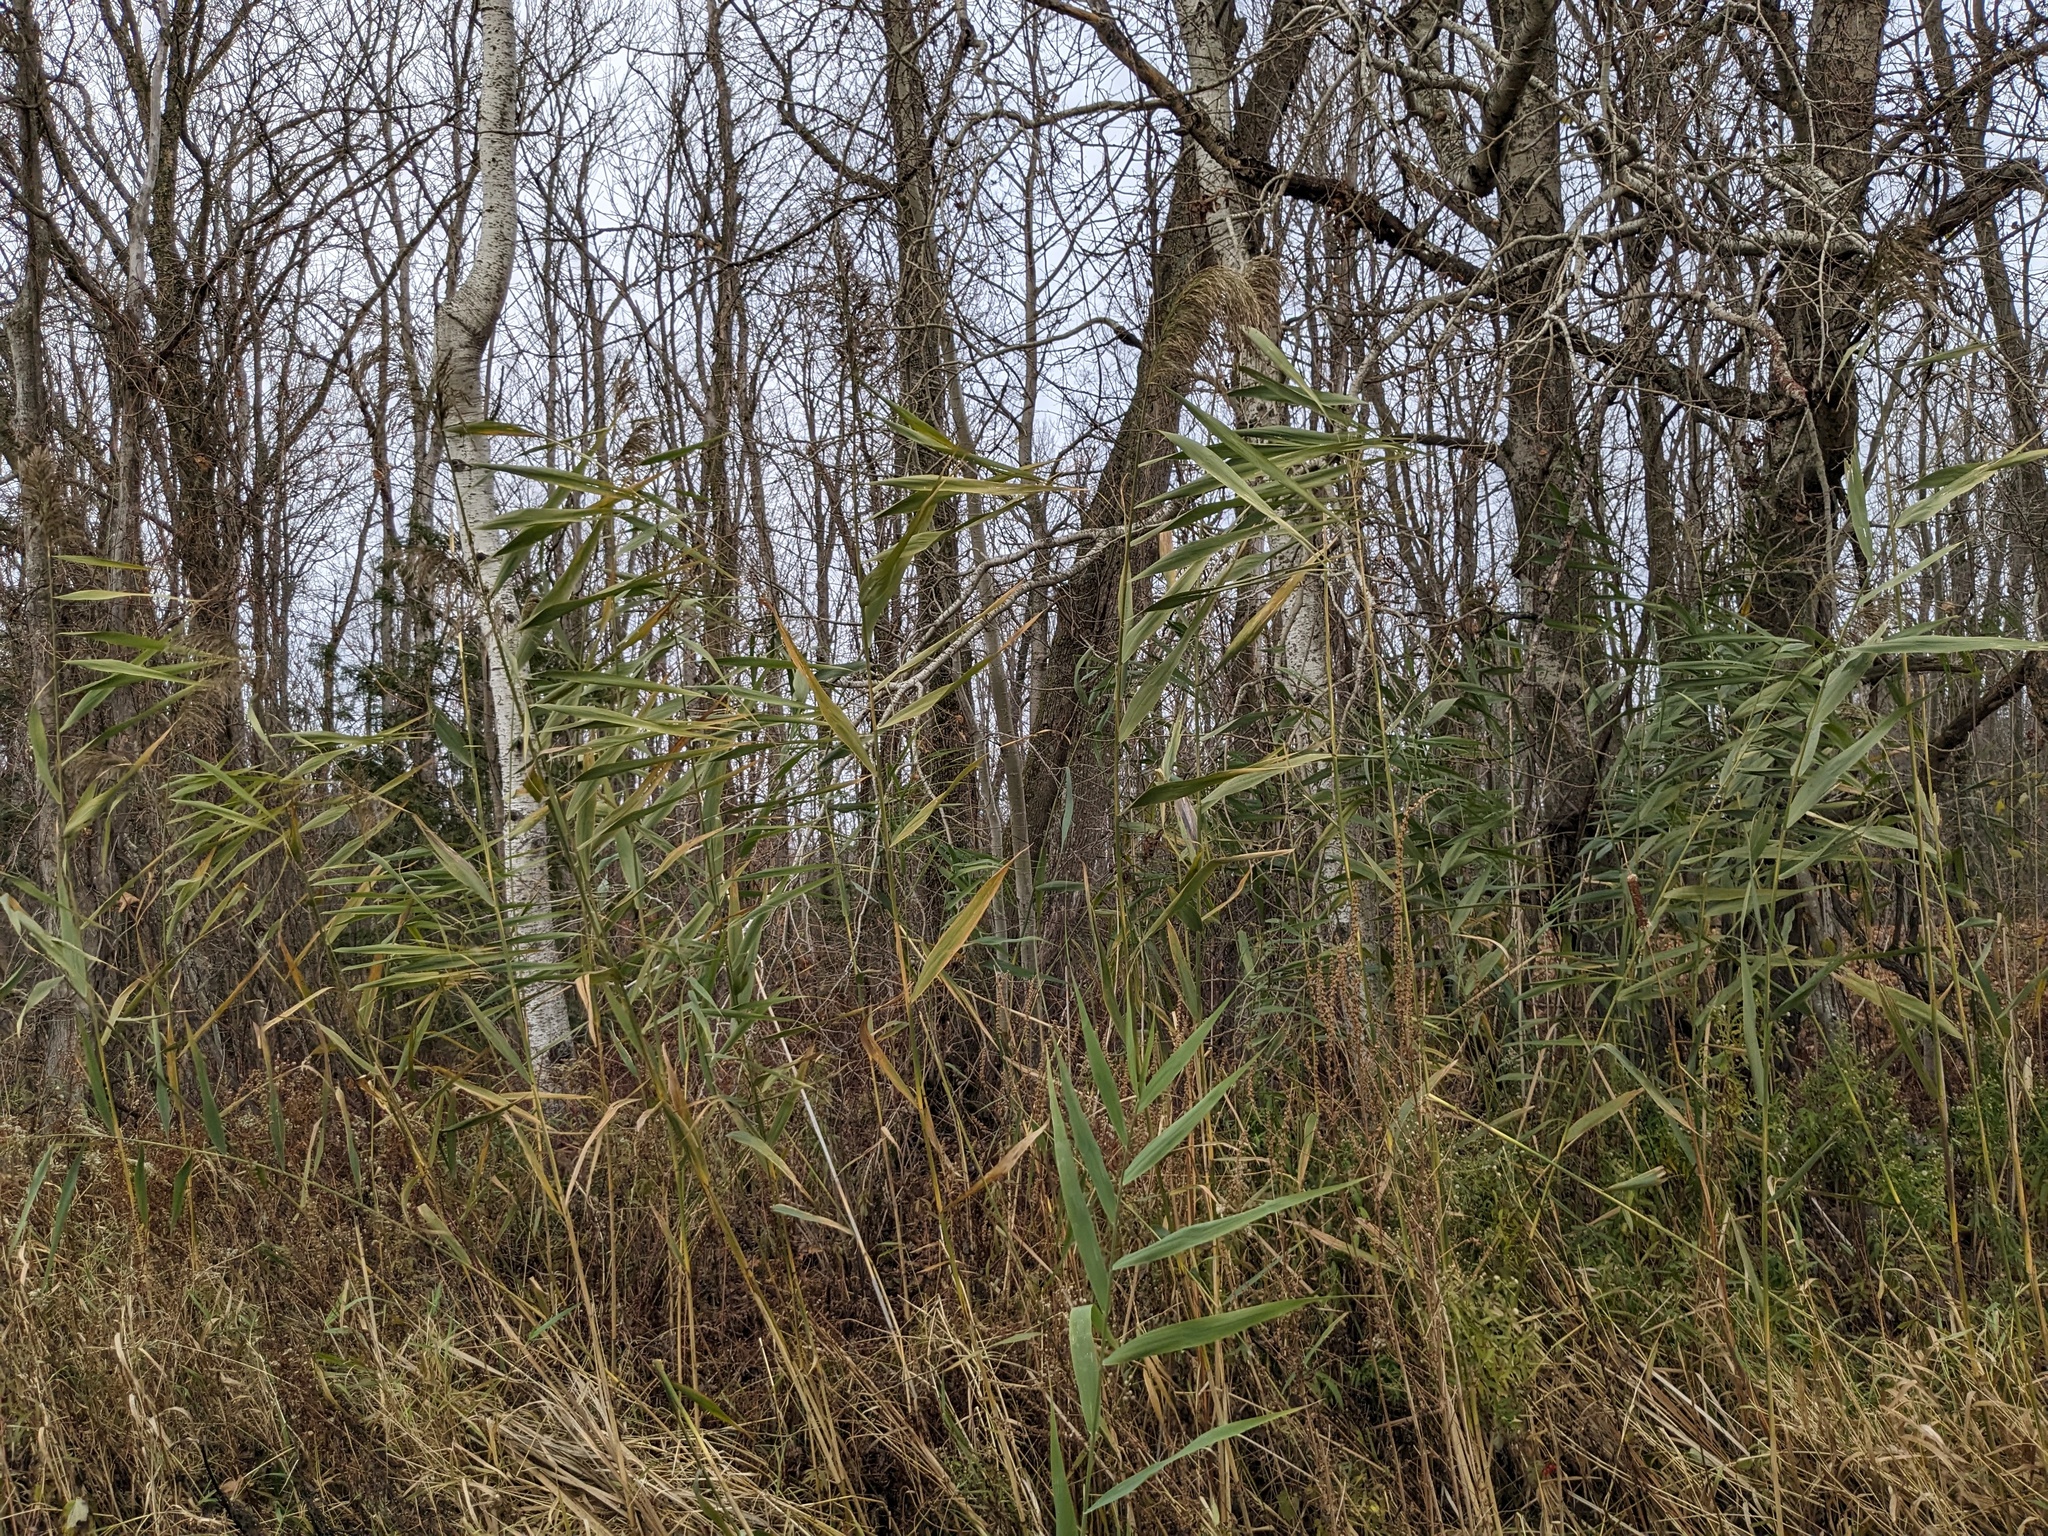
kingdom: Plantae
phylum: Tracheophyta
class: Liliopsida
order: Poales
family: Poaceae
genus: Phragmites
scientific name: Phragmites australis
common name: Common reed
